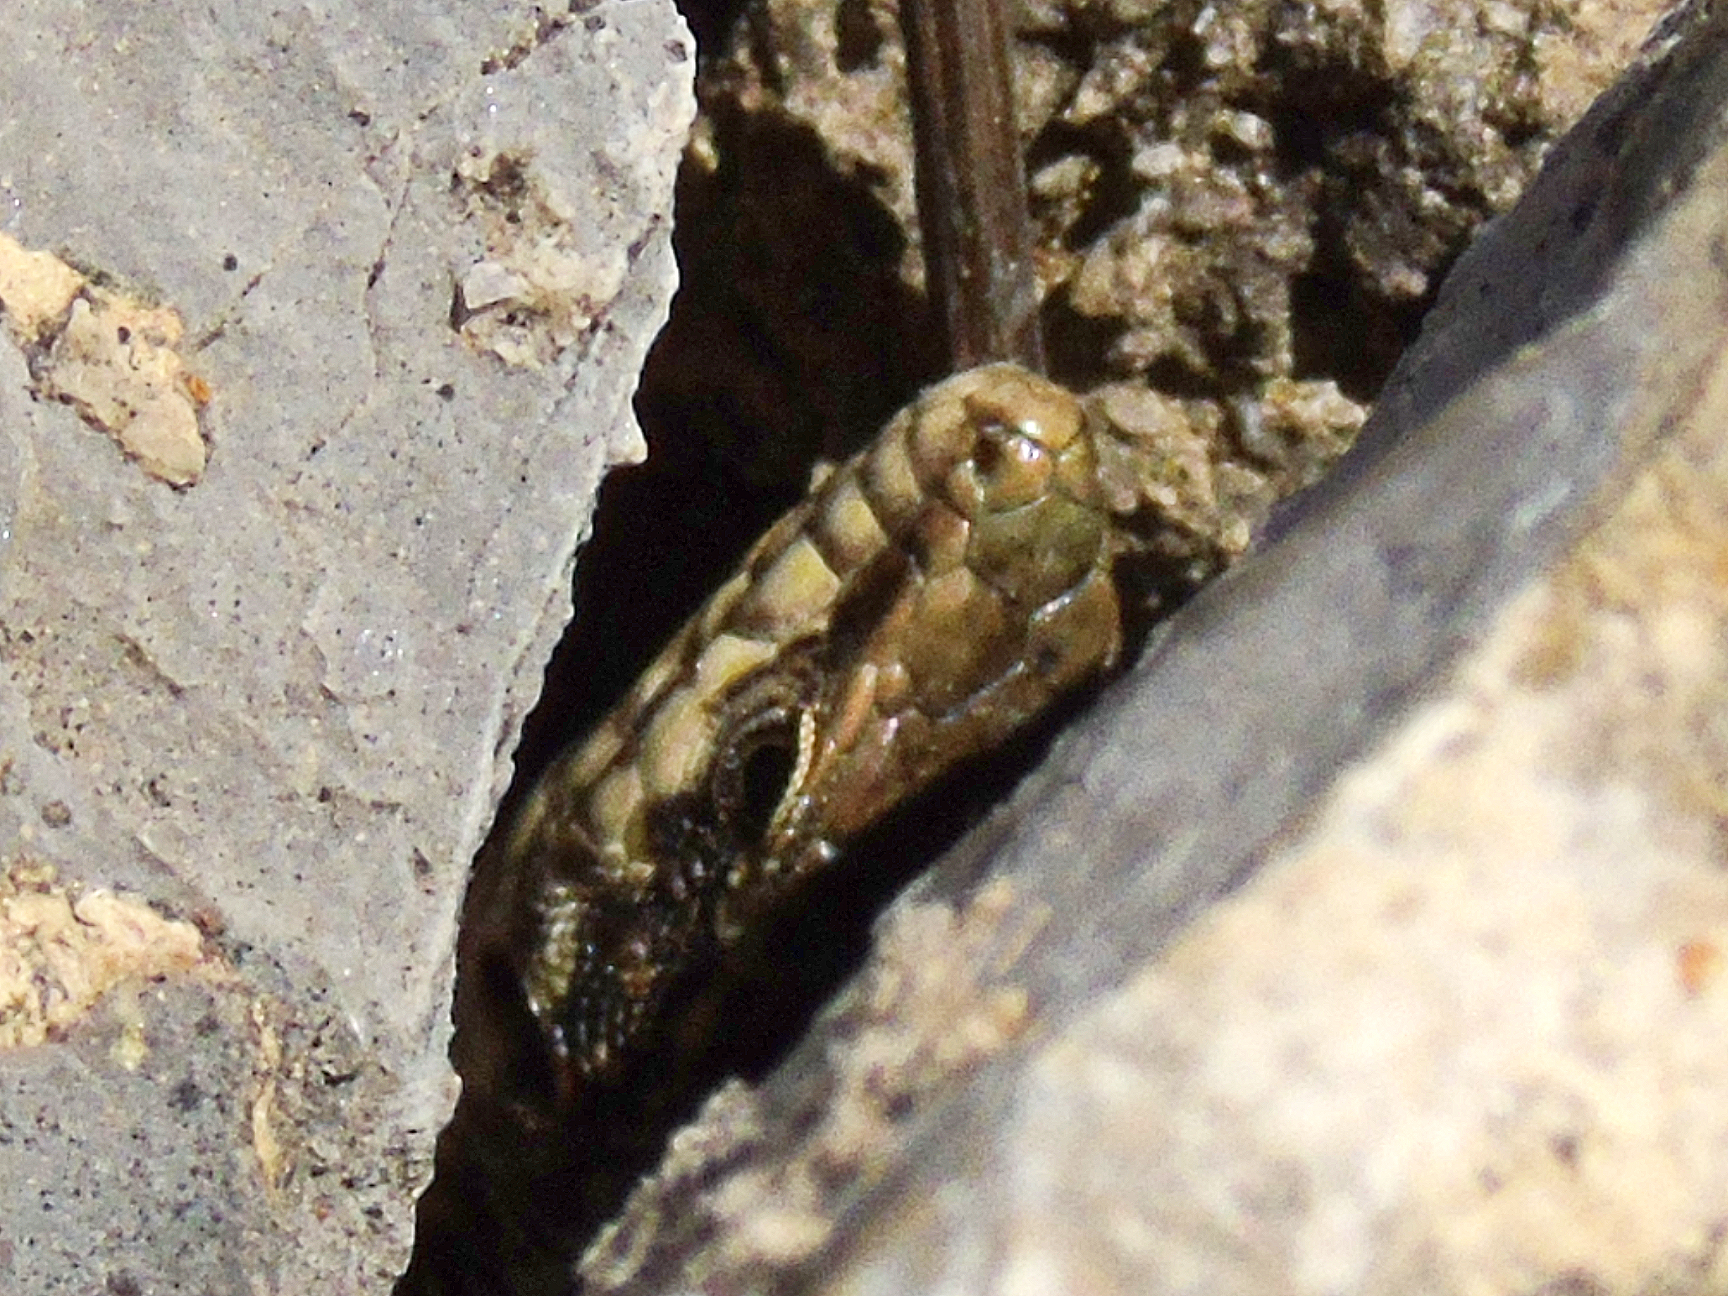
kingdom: Animalia
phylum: Chordata
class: Squamata
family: Lacertidae
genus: Podarcis
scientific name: Podarcis erhardii
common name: Erhard's wall lizard
